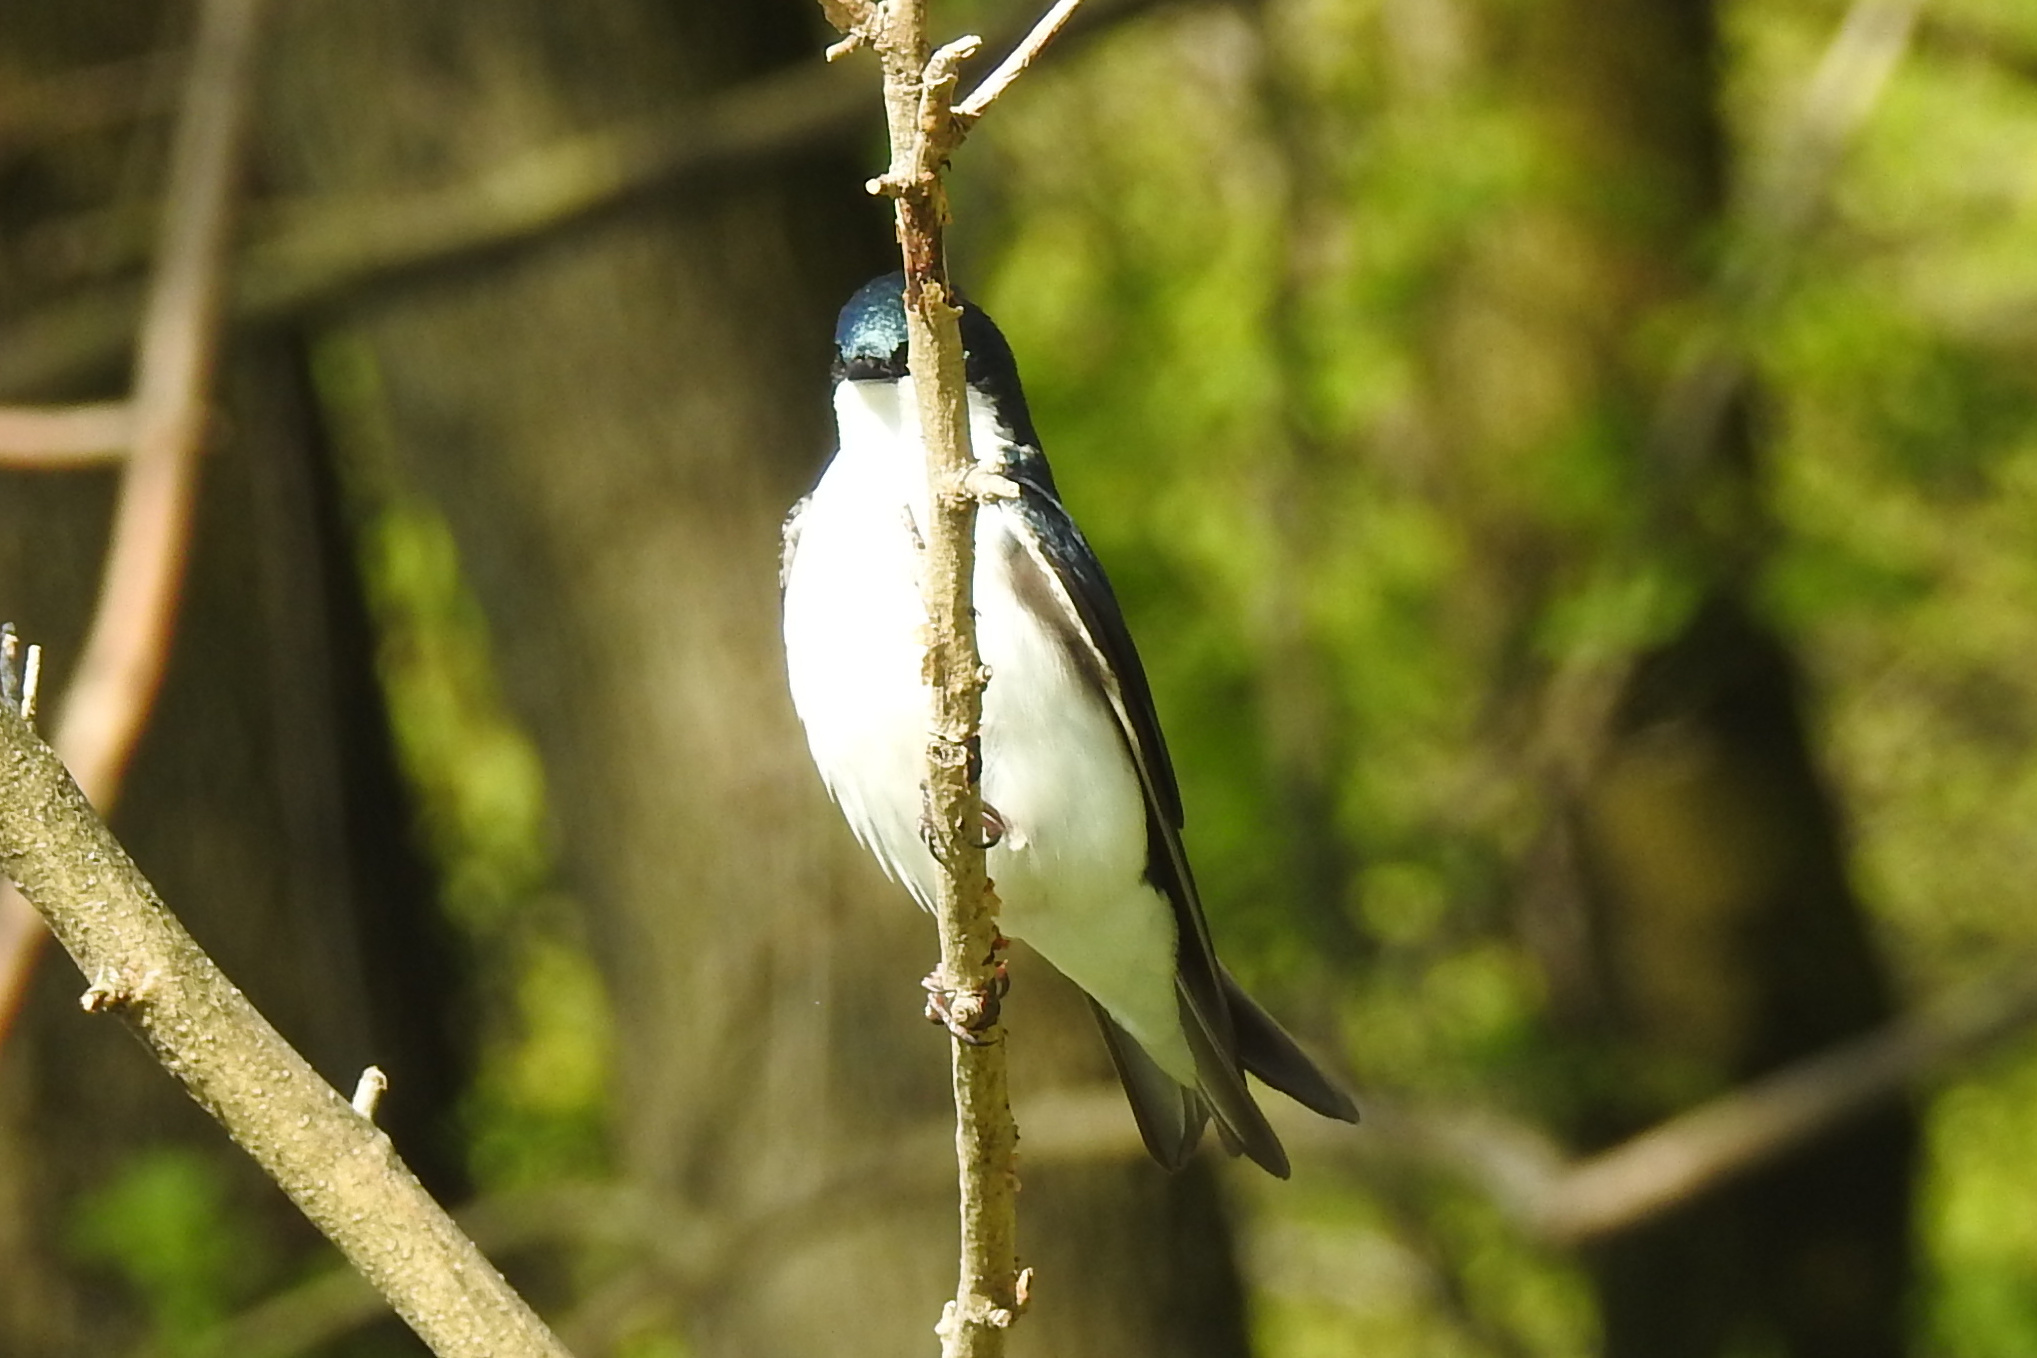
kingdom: Animalia
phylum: Chordata
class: Aves
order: Passeriformes
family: Hirundinidae
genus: Tachycineta
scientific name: Tachycineta bicolor
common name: Tree swallow
